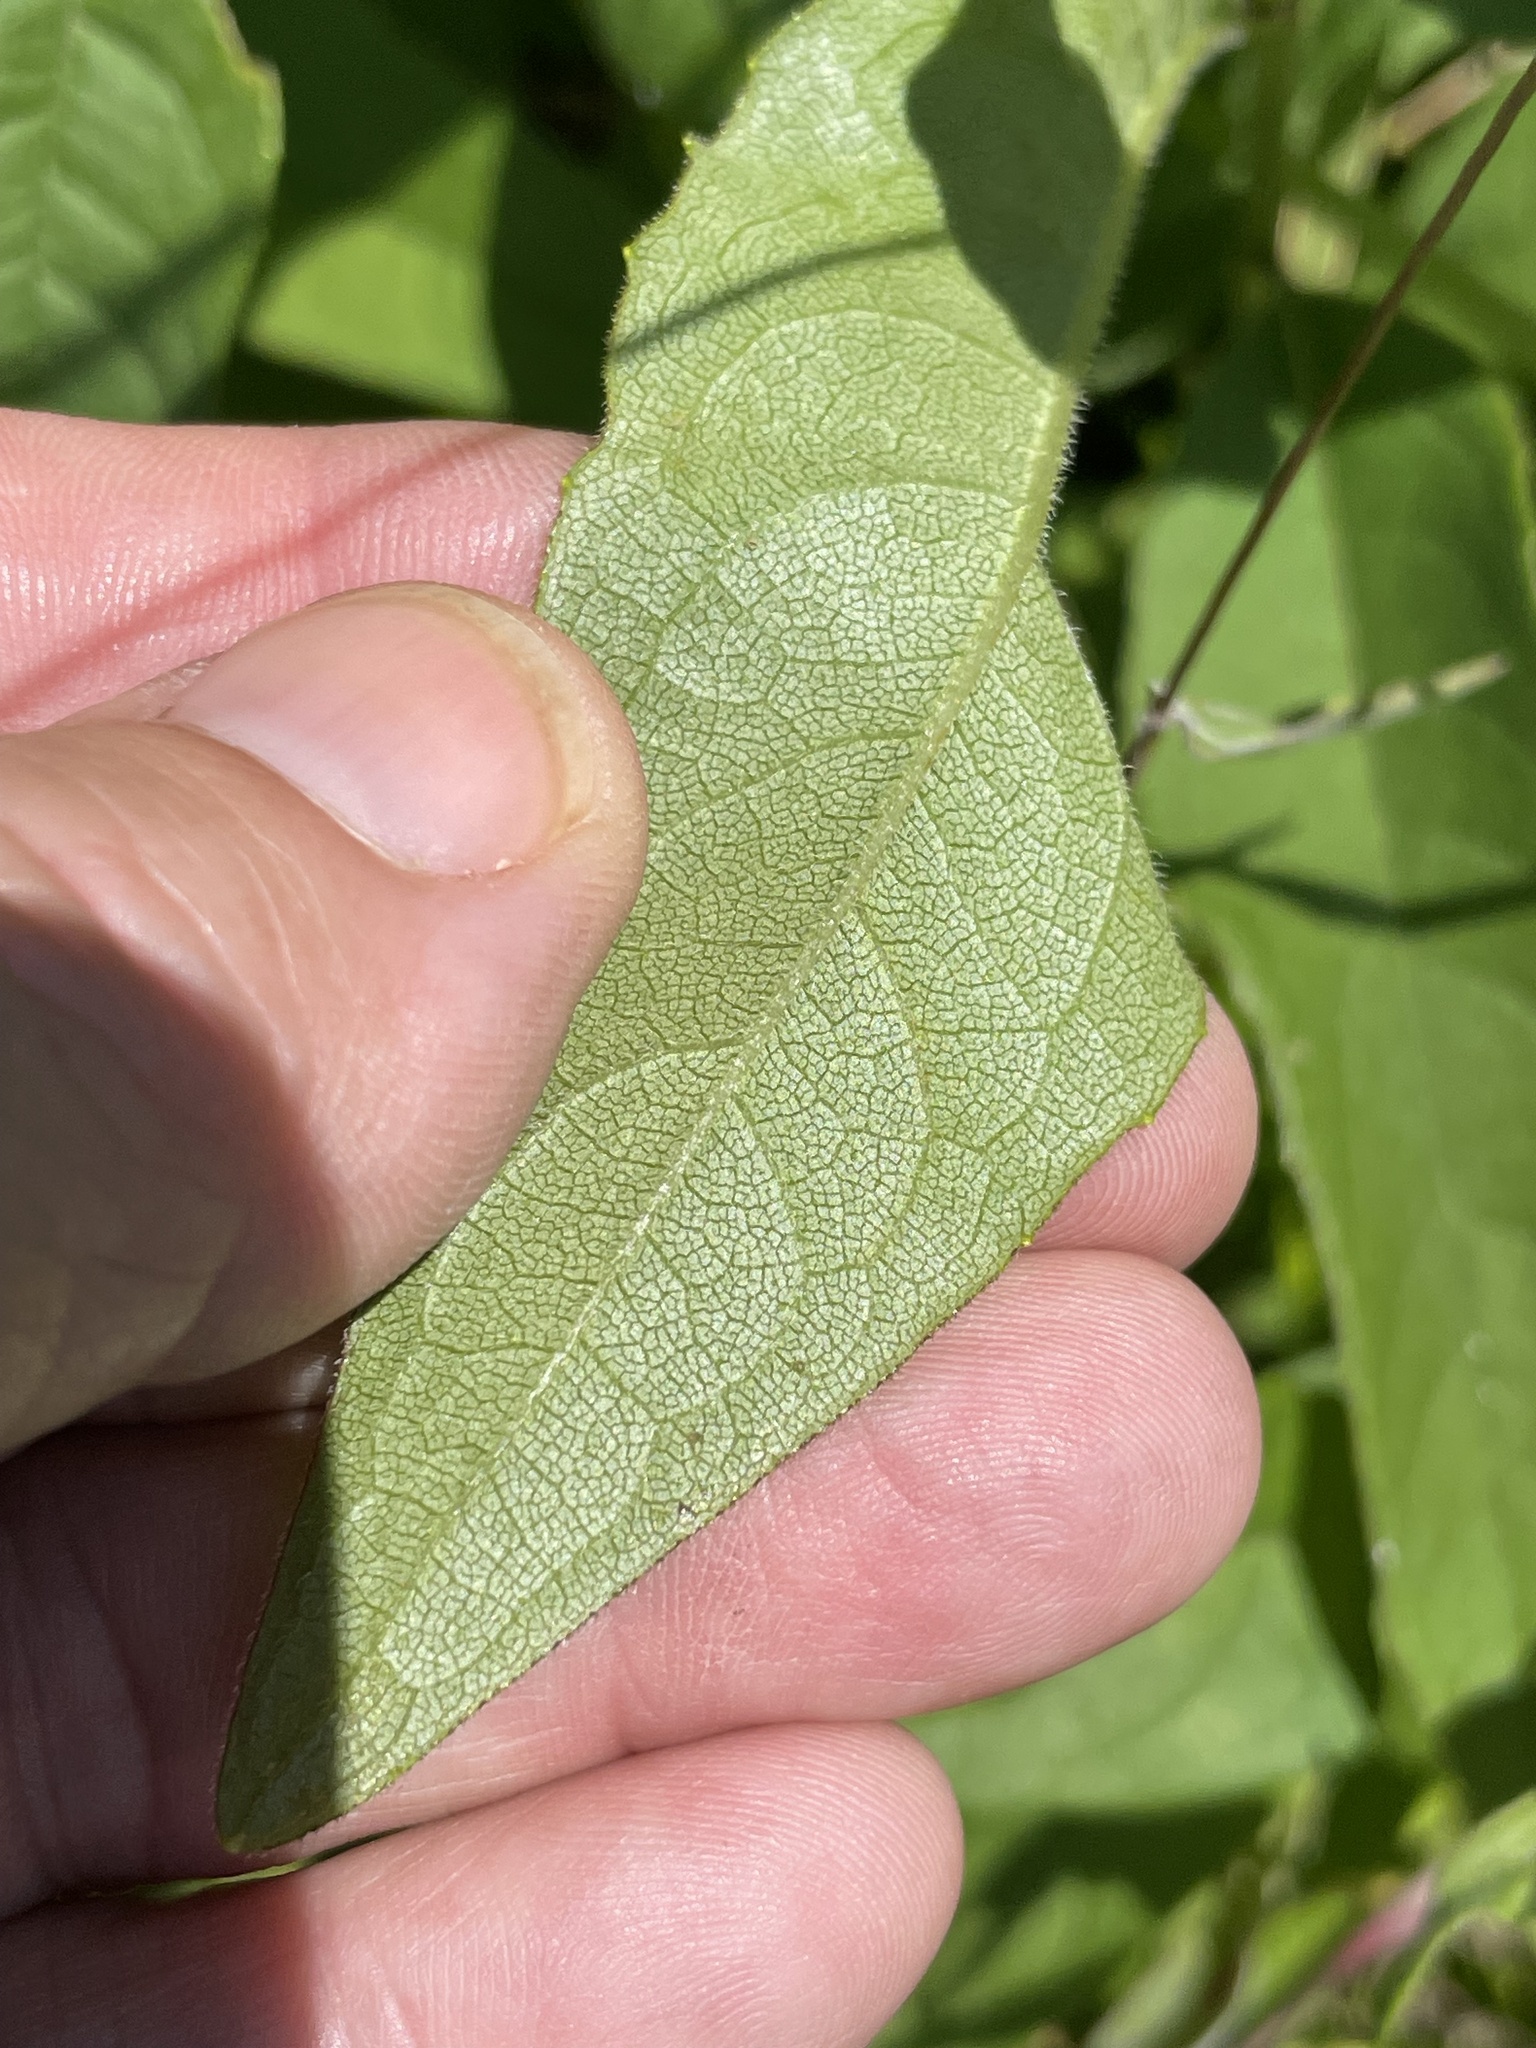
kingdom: Plantae
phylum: Tracheophyta
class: Magnoliopsida
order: Asterales
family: Asteraceae
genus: Silphium
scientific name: Silphium asteriscus
